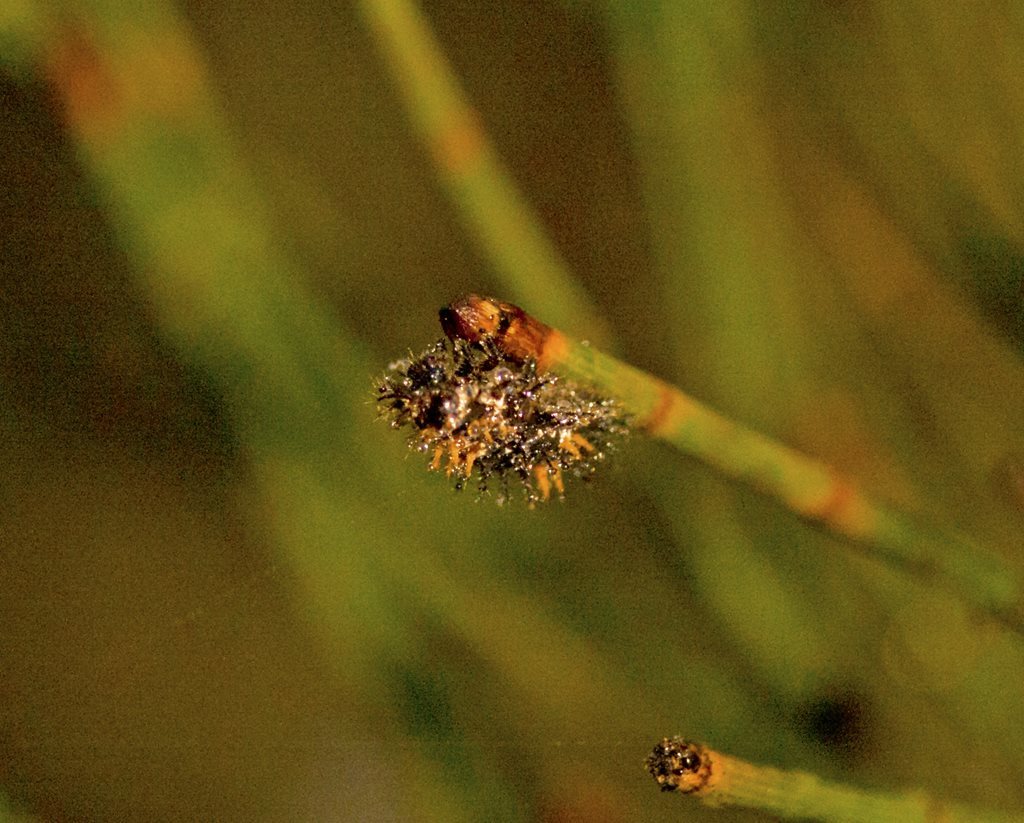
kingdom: Animalia
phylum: Arthropoda
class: Insecta
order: Coleoptera
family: Coccinellidae
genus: Orcus
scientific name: Orcus
